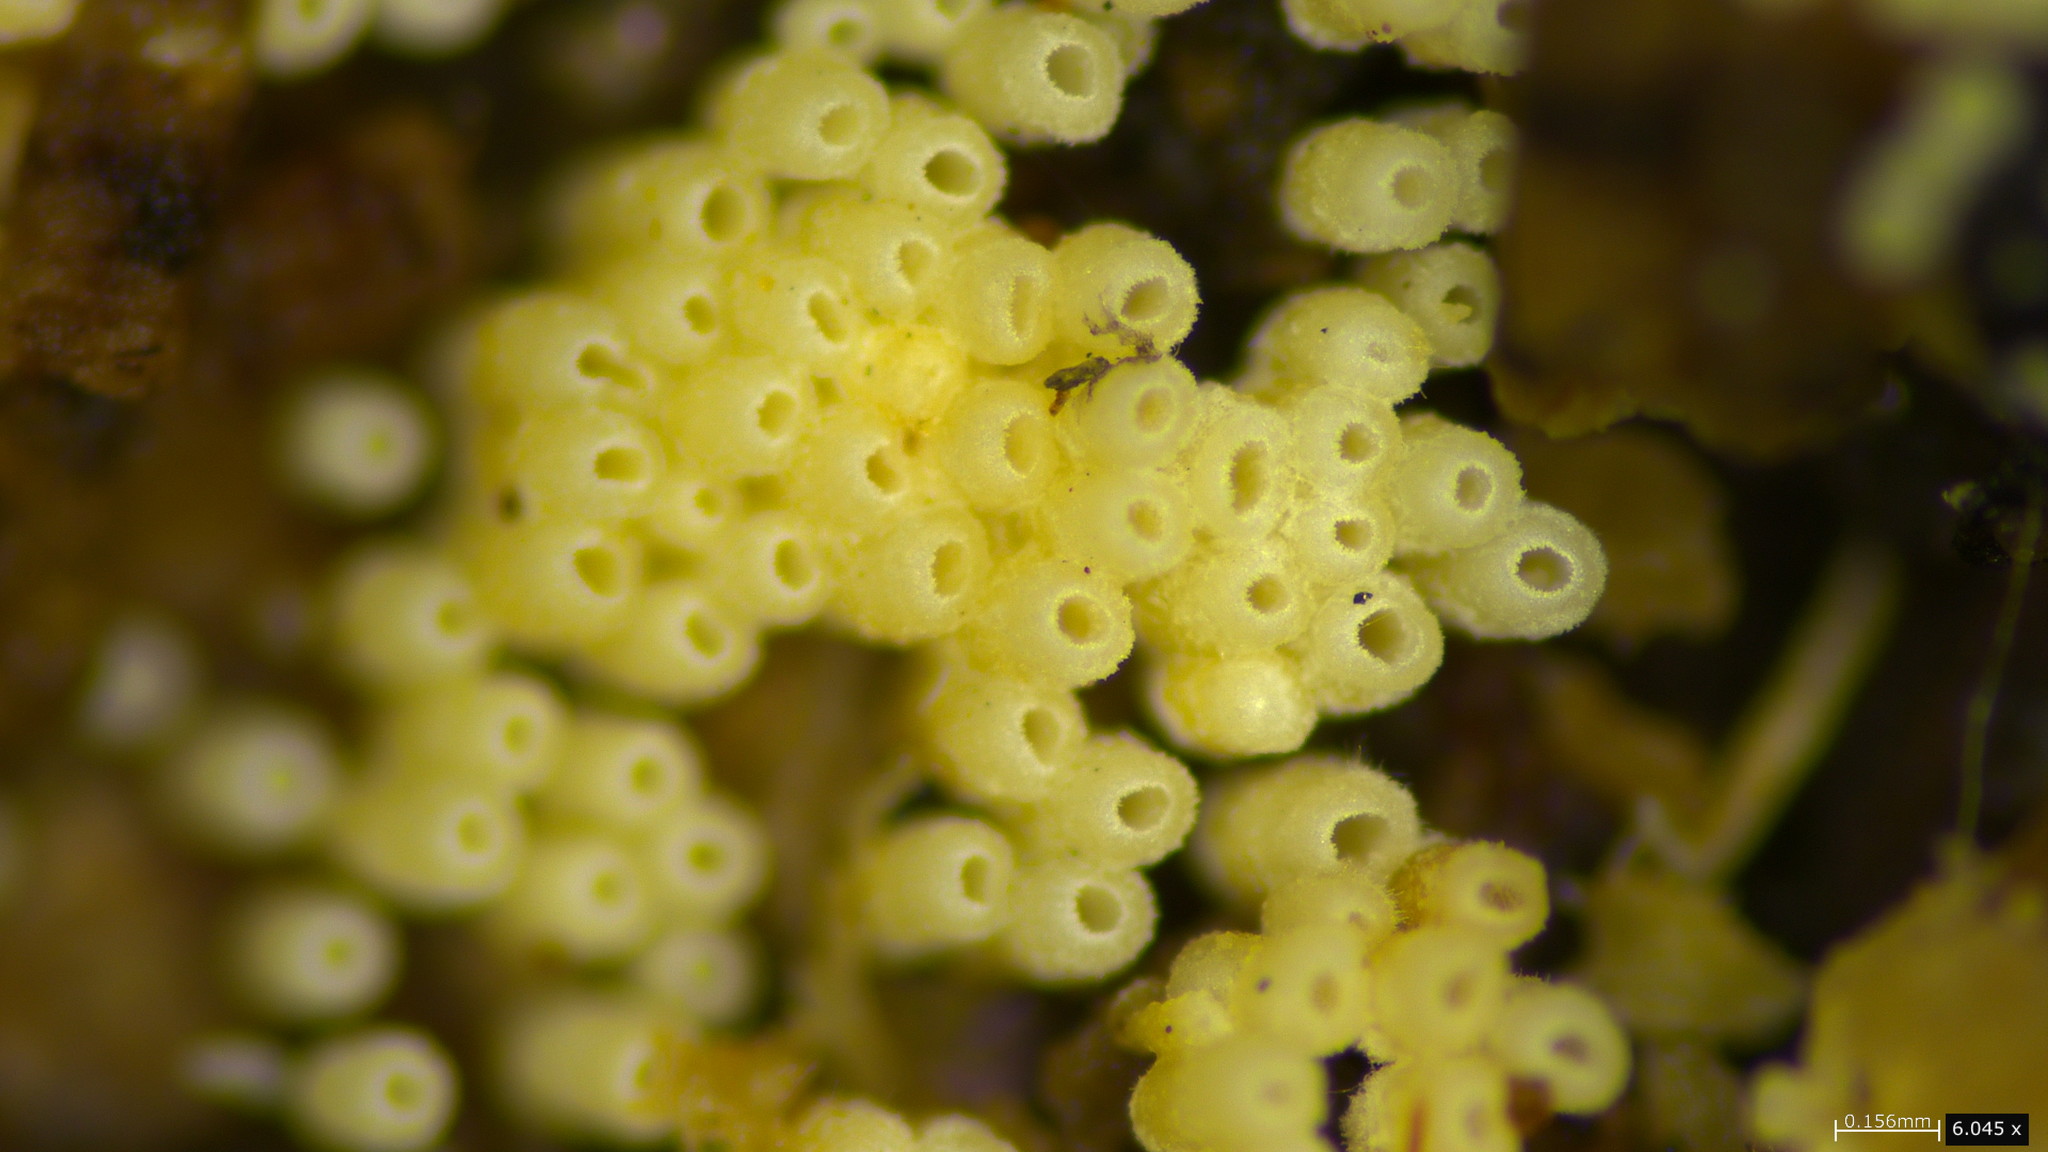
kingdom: Fungi
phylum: Basidiomycota
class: Agaricomycetes
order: Agaricales
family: Marasmiaceae
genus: Henningsomyces
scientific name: Henningsomyces candidus
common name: White tubelet
